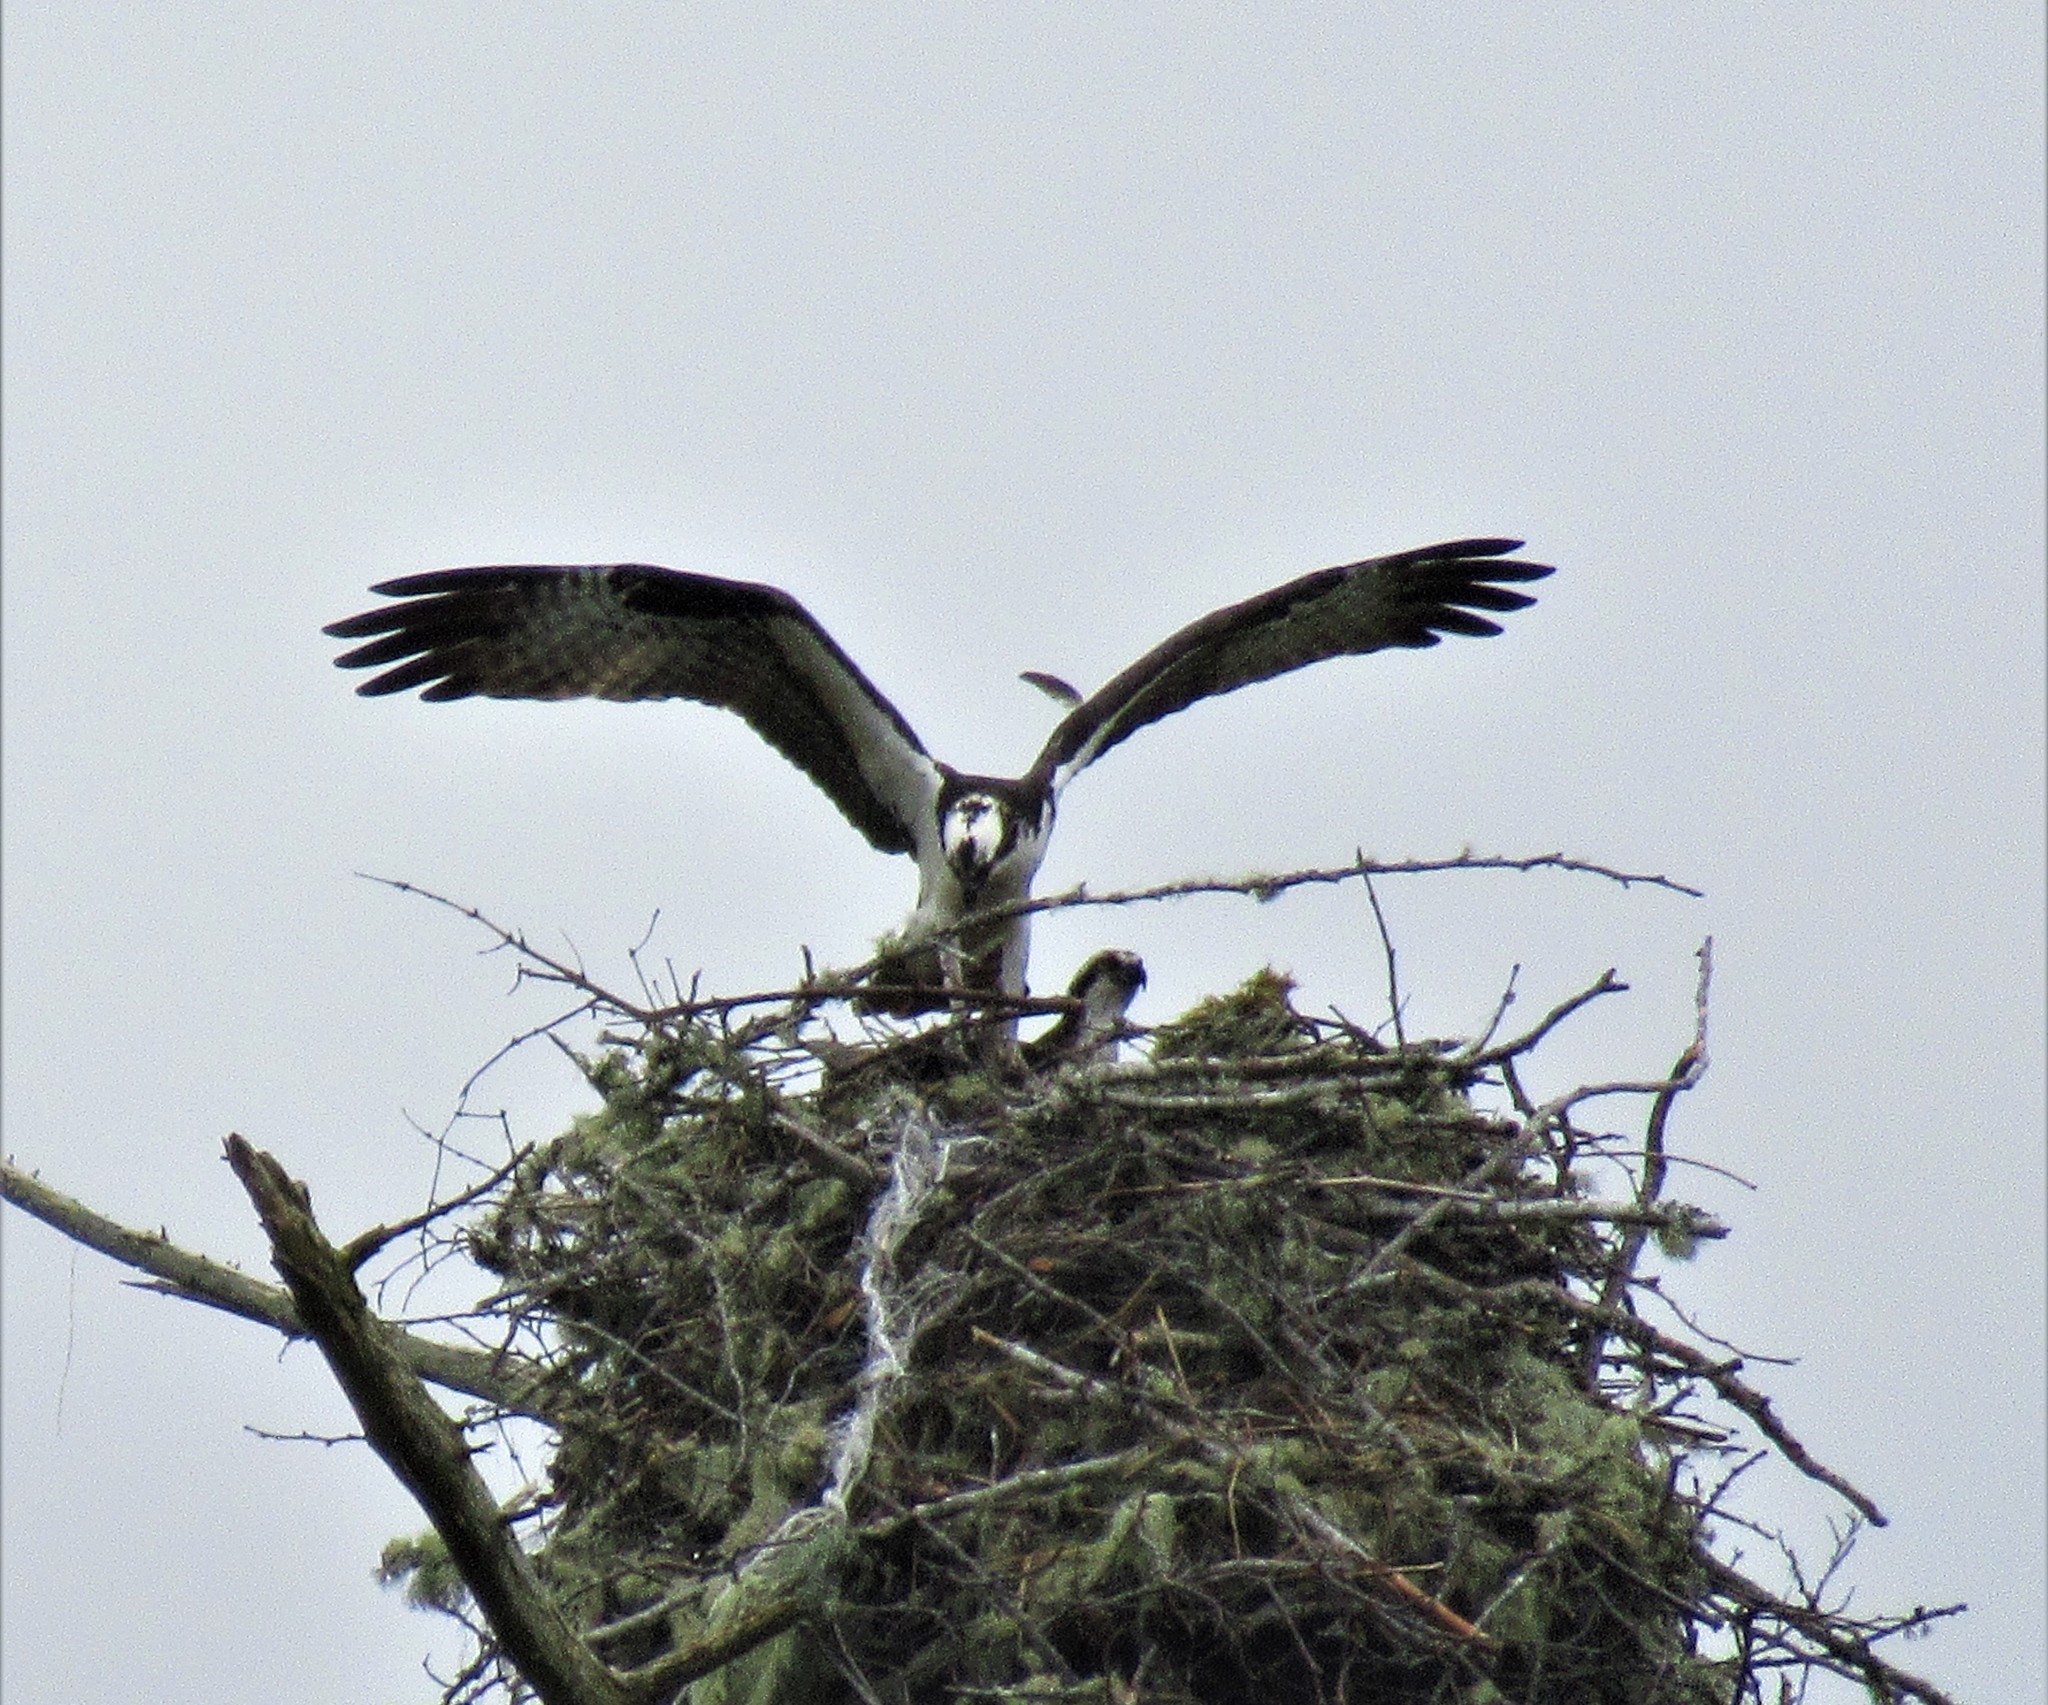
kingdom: Animalia
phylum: Chordata
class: Aves
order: Accipitriformes
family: Pandionidae
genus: Pandion
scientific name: Pandion haliaetus
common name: Osprey
